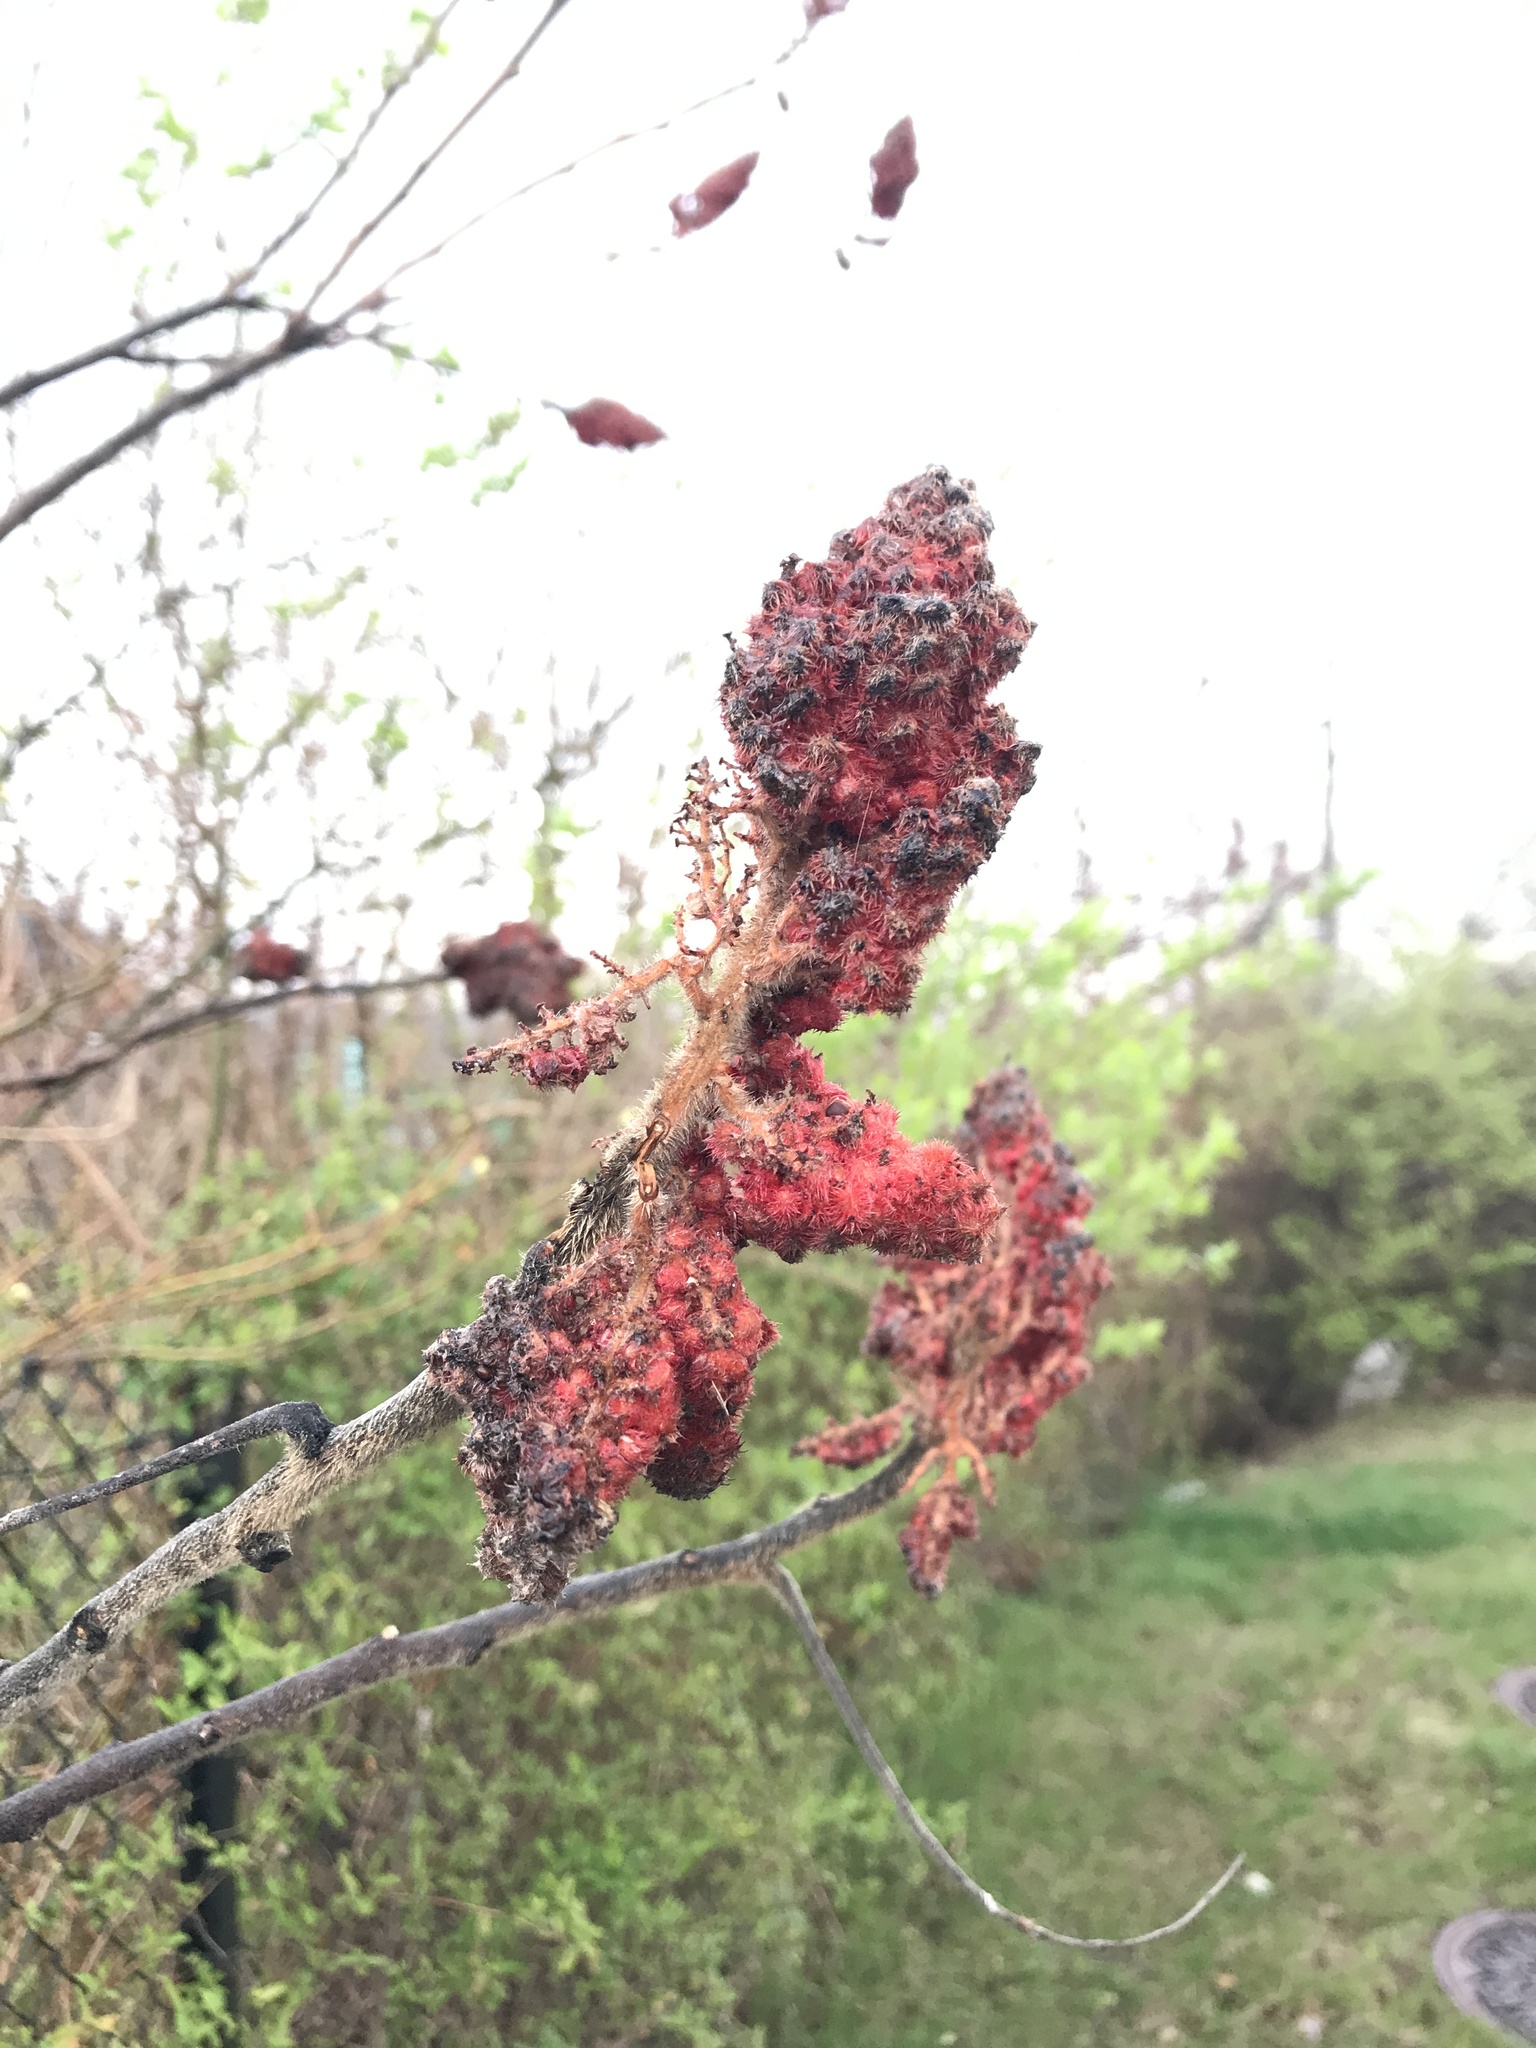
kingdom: Plantae
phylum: Tracheophyta
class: Magnoliopsida
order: Sapindales
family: Anacardiaceae
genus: Rhus
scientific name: Rhus typhina
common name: Staghorn sumac
